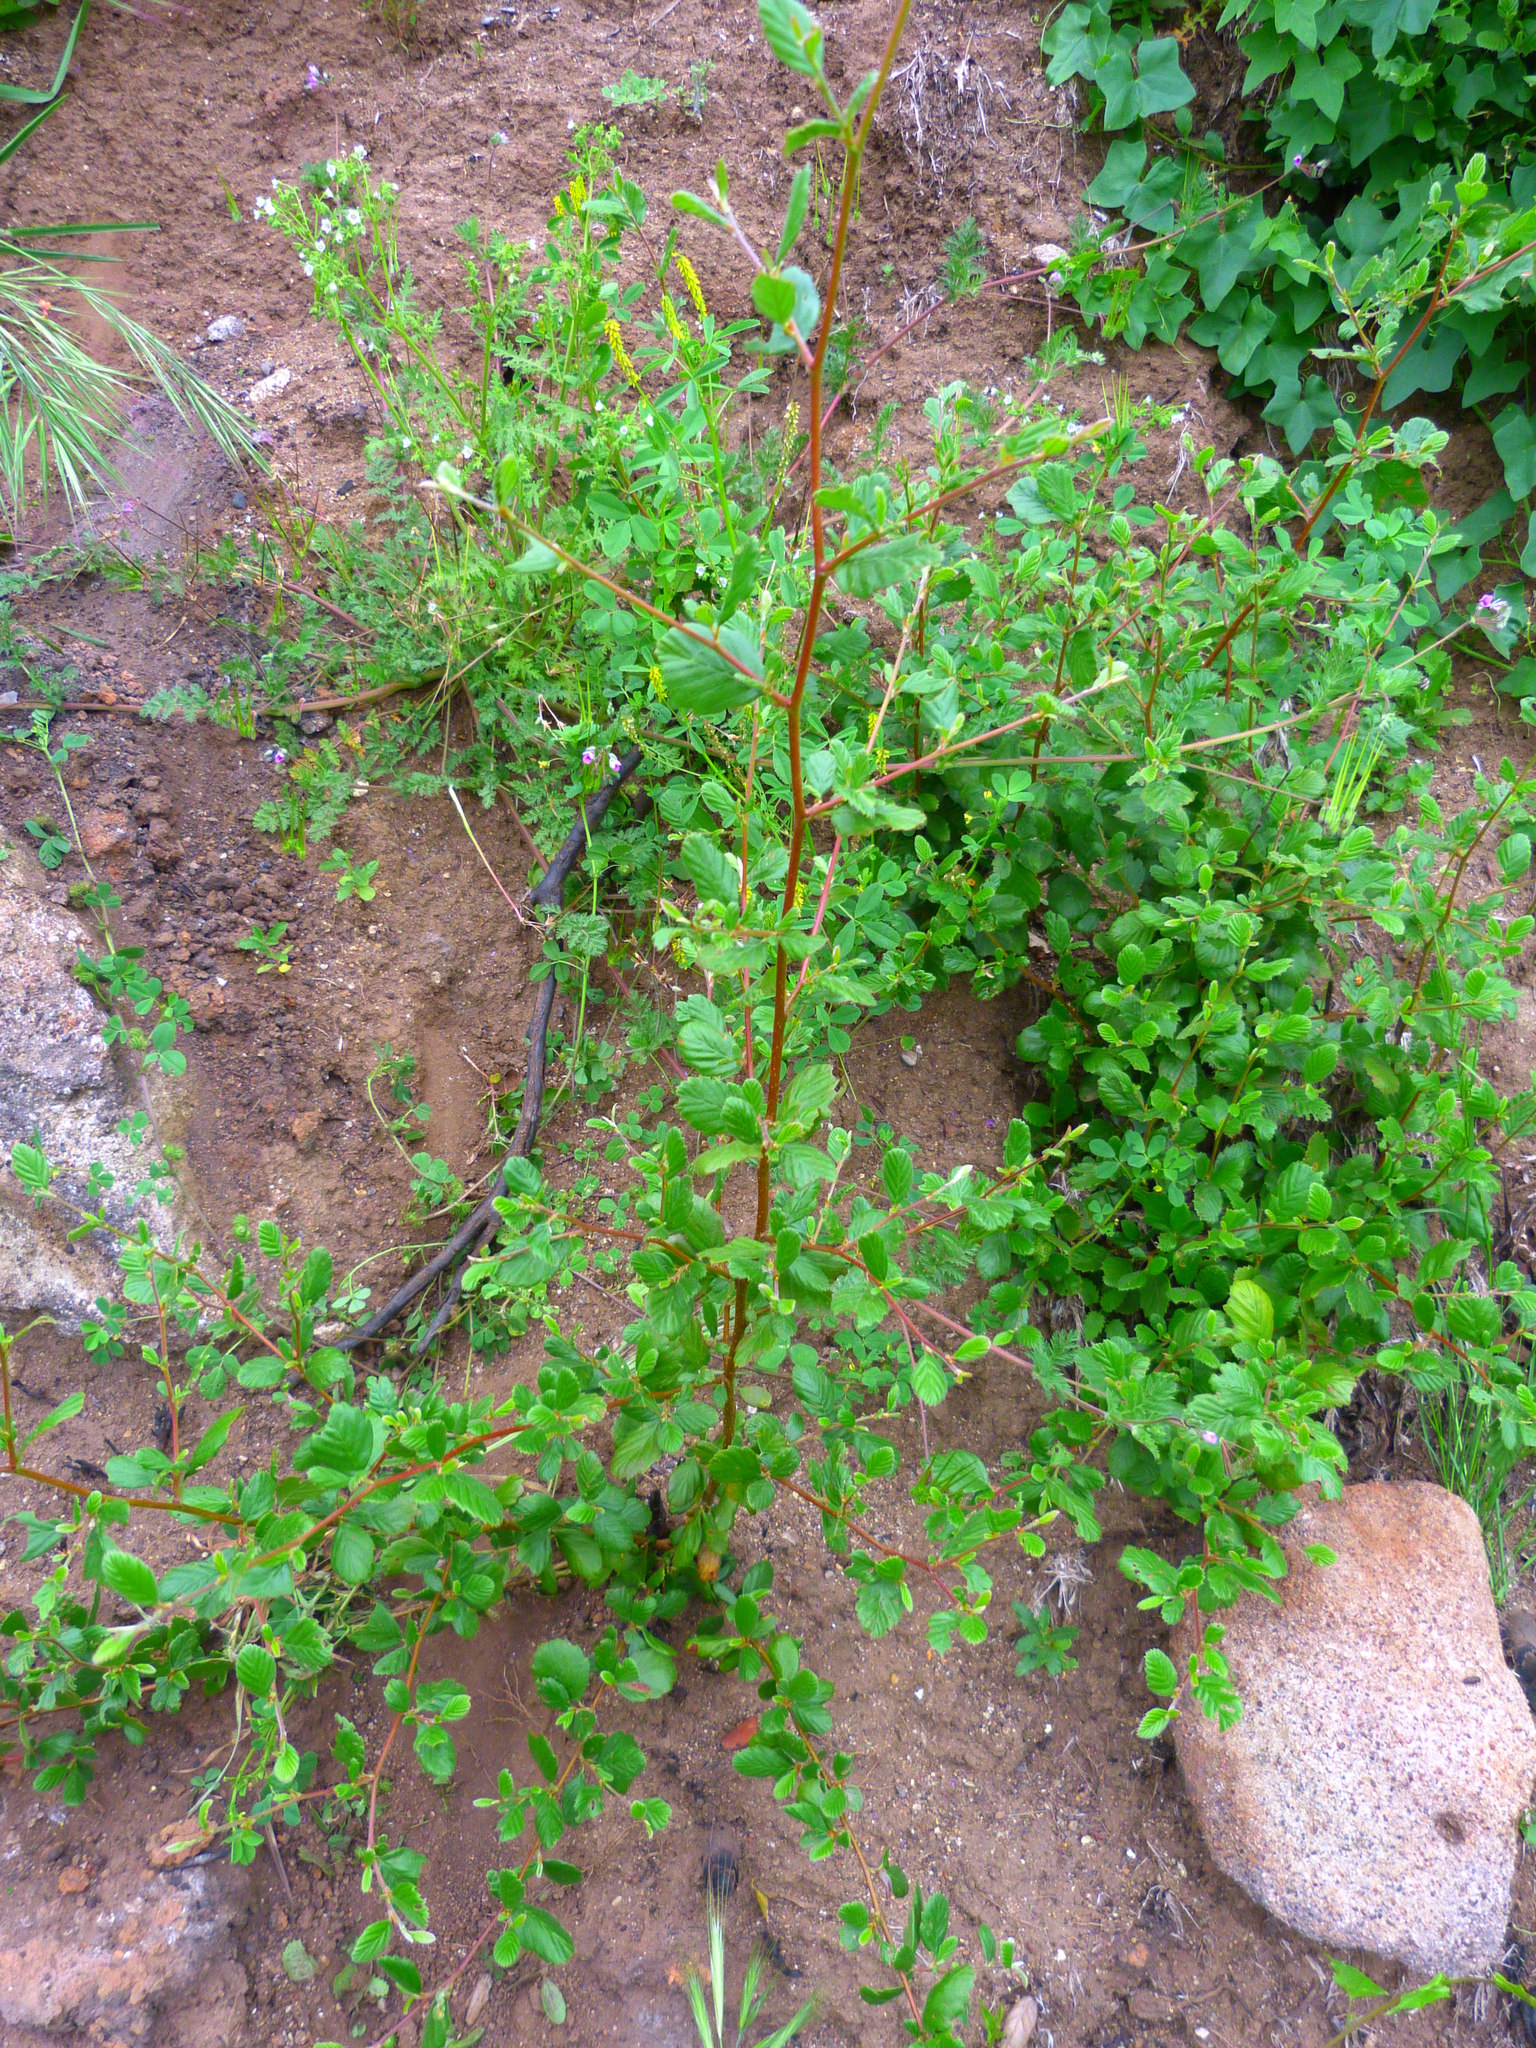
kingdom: Plantae
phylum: Tracheophyta
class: Magnoliopsida
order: Rosales
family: Rosaceae
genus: Cercocarpus
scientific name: Cercocarpus betuloides
